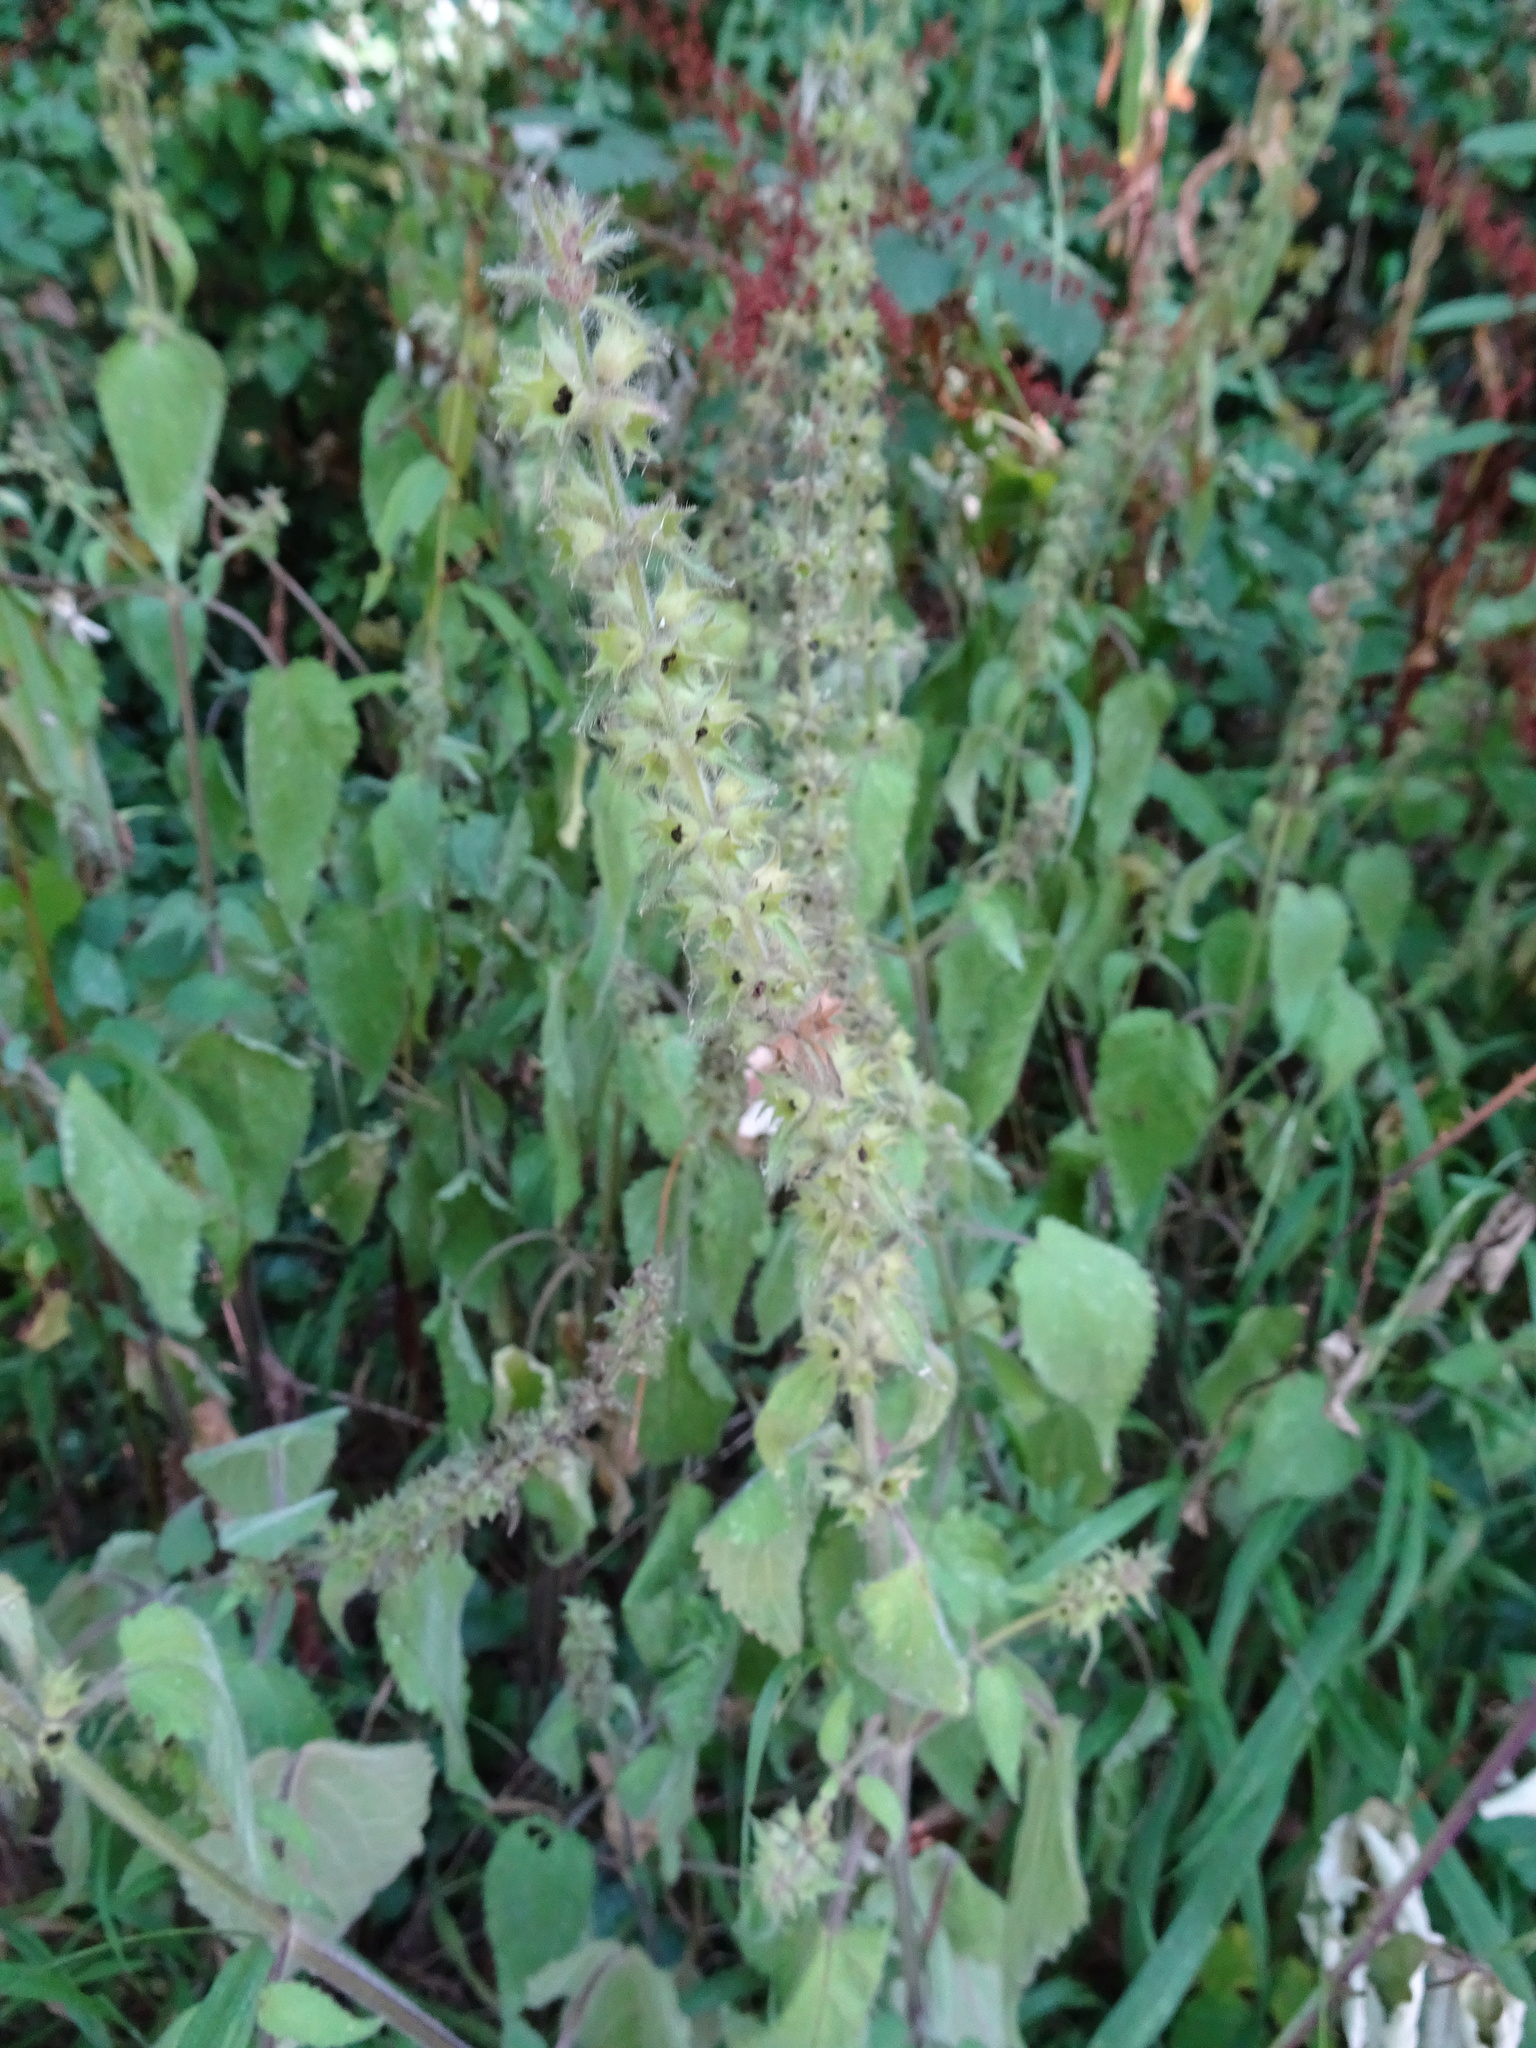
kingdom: Plantae
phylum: Tracheophyta
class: Magnoliopsida
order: Lamiales
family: Lamiaceae
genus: Stachys
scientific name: Stachys sylvatica
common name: Hedge woundwort
